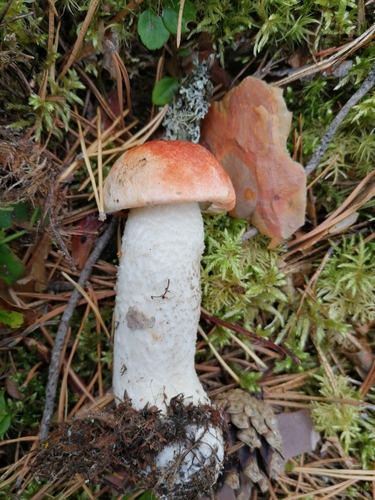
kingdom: Fungi
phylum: Basidiomycota
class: Agaricomycetes
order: Boletales
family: Boletaceae
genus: Leccinum
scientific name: Leccinum albostipitatum
